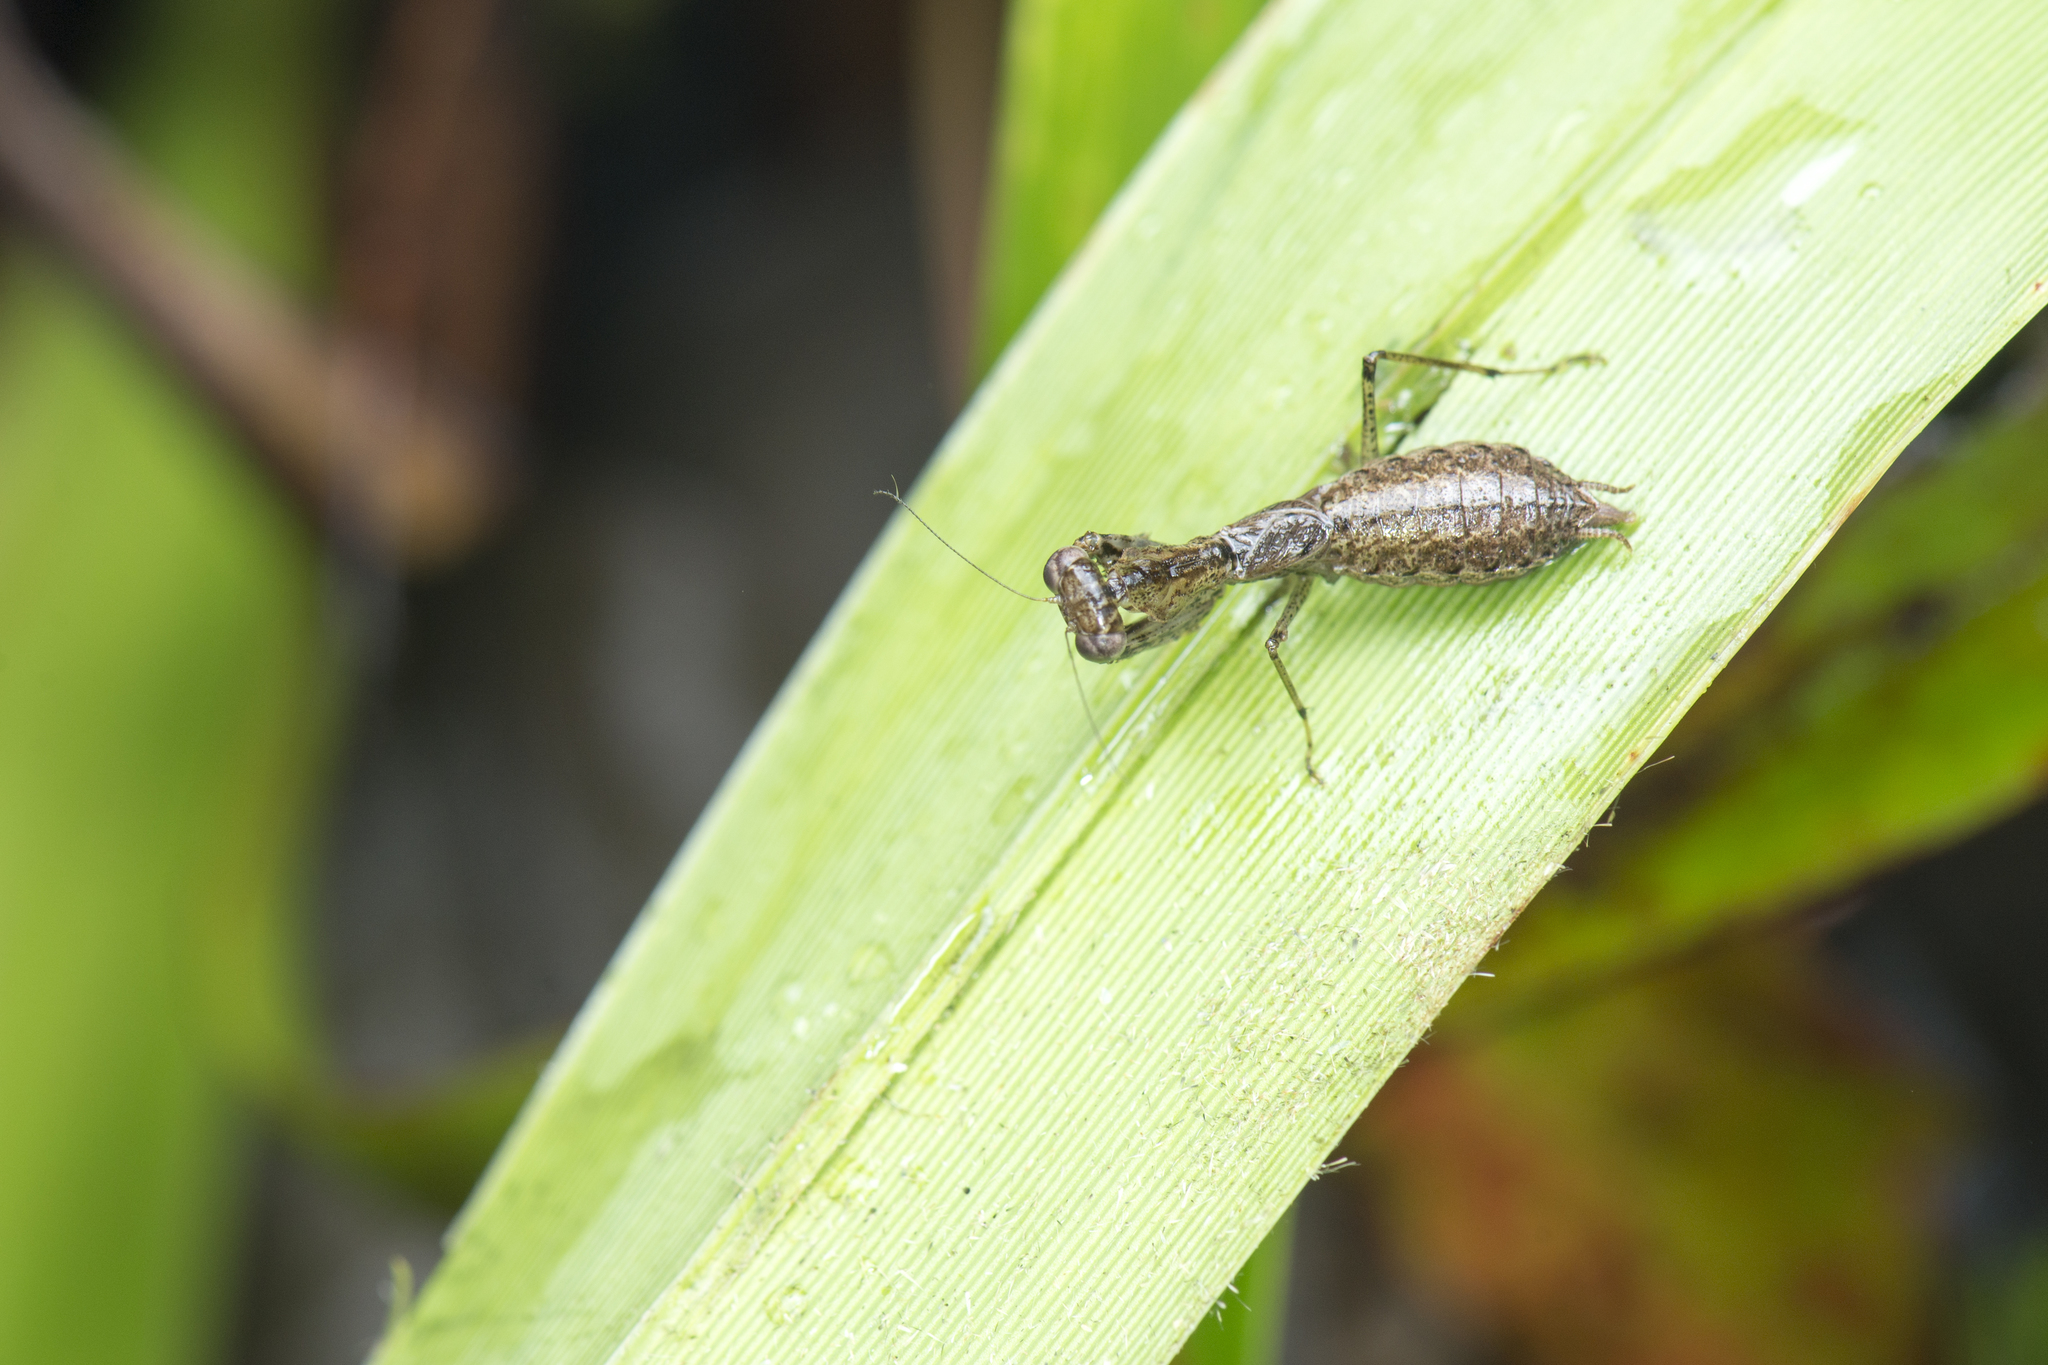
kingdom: Animalia
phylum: Arthropoda
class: Insecta
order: Mantodea
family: Gonypetidae
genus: Amantis
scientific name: Amantis nawai
